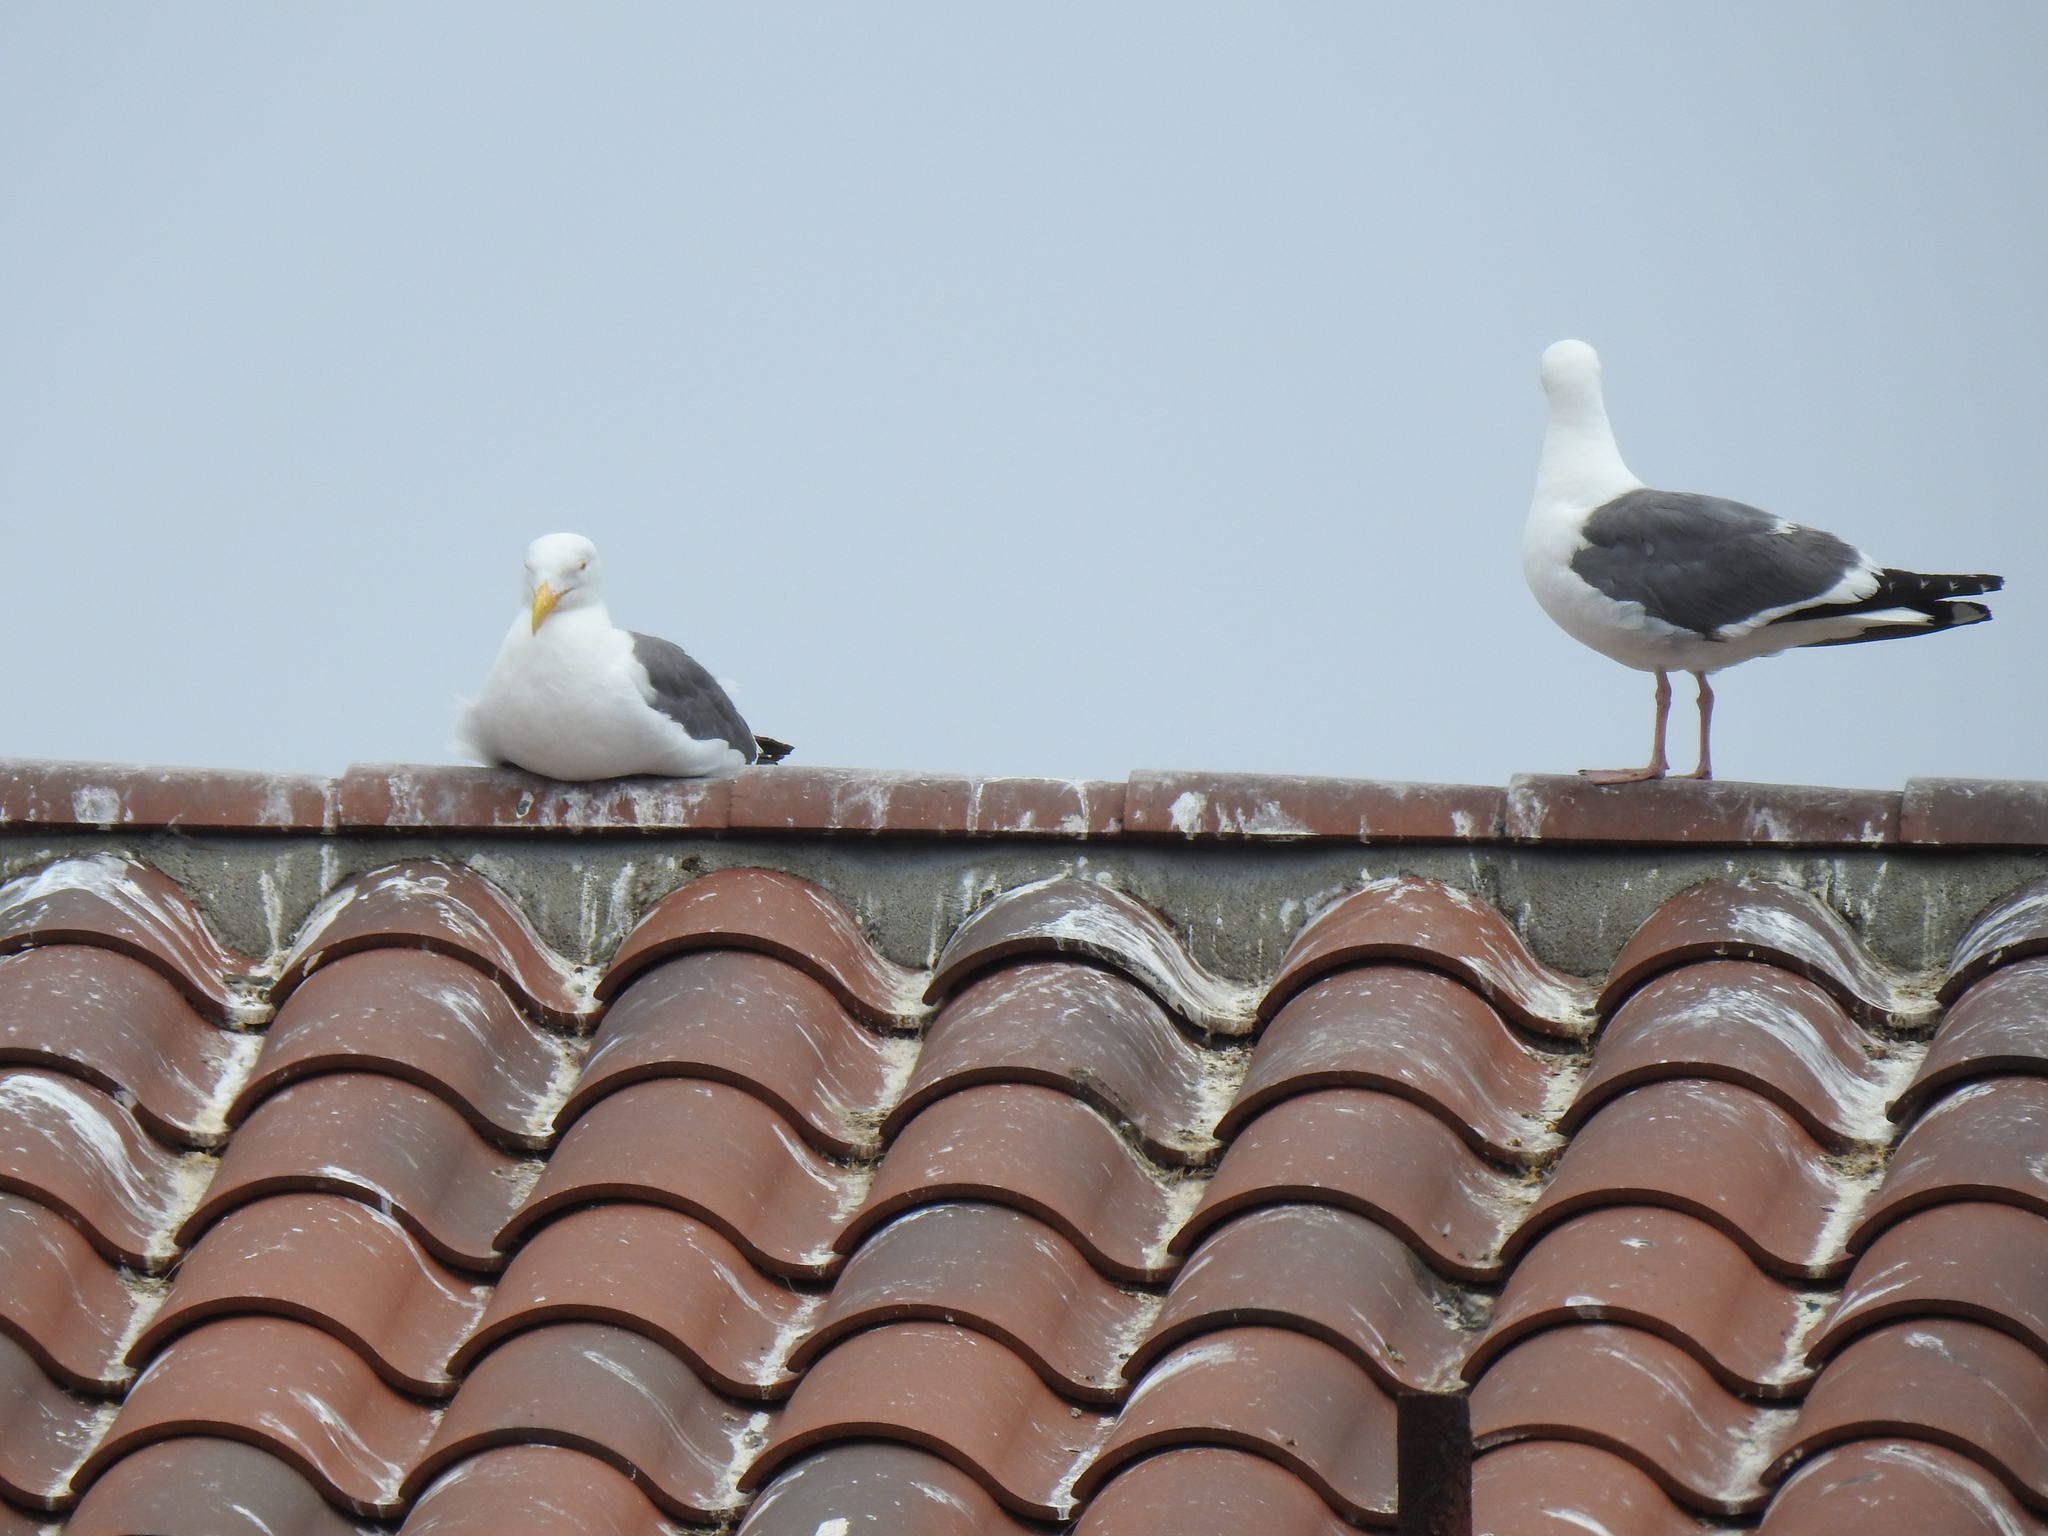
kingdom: Animalia
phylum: Chordata
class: Aves
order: Charadriiformes
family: Laridae
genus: Larus
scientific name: Larus occidentalis
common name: Western gull
